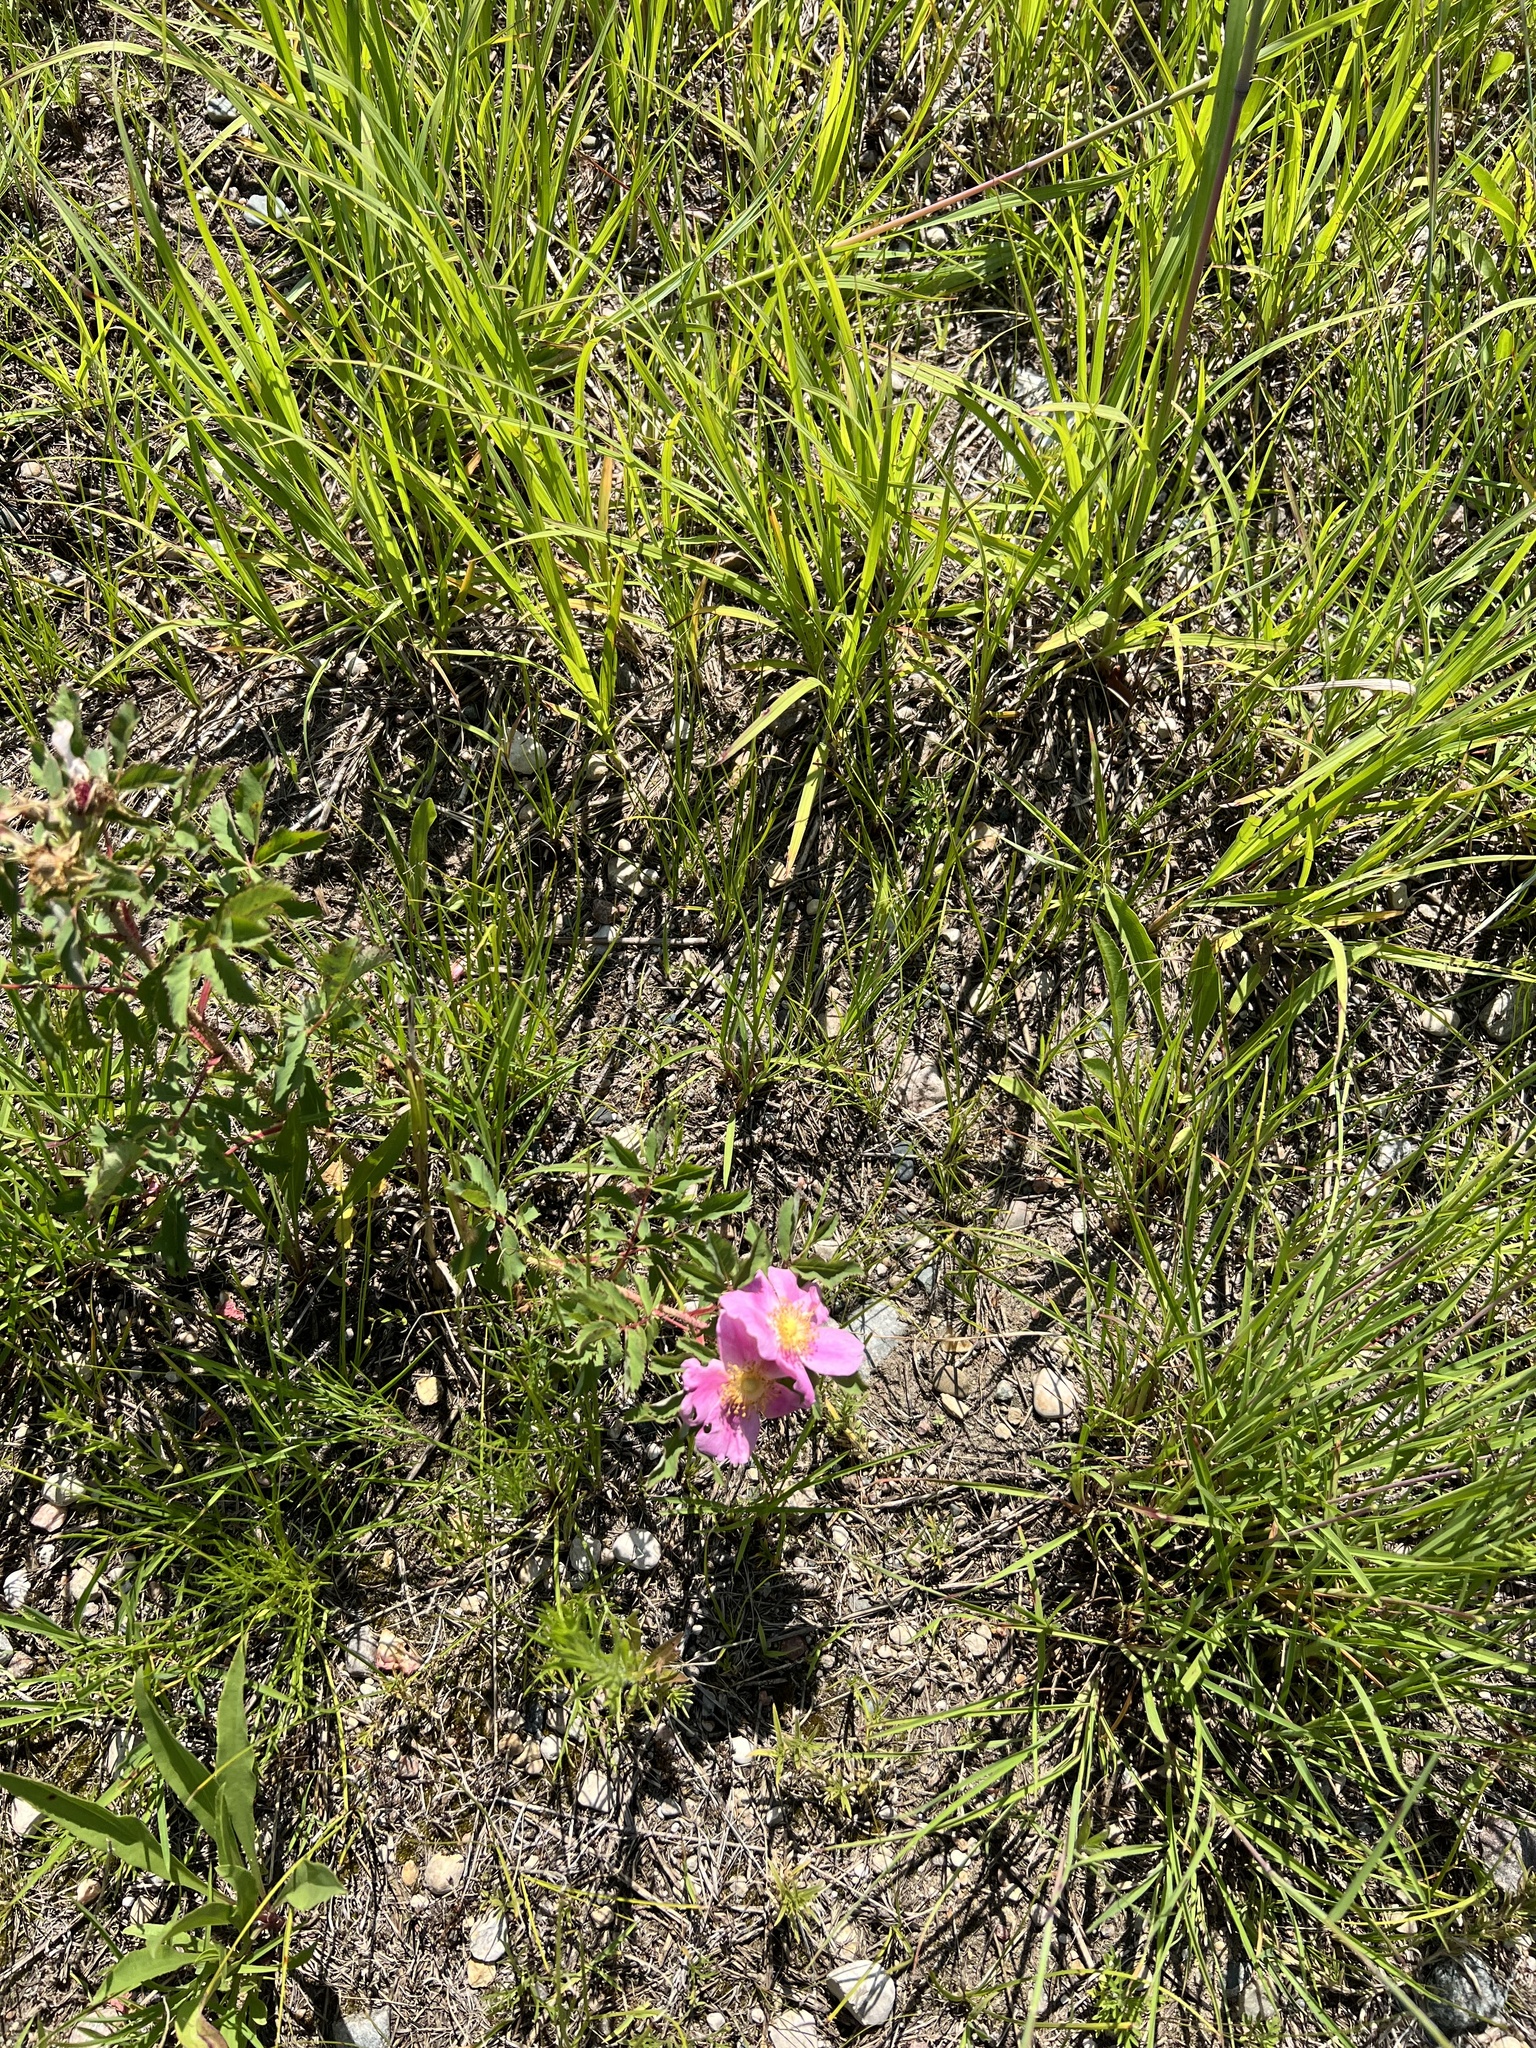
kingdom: Plantae
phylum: Tracheophyta
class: Magnoliopsida
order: Rosales
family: Rosaceae
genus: Rosa
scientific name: Rosa arkansana
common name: Prairie rose
